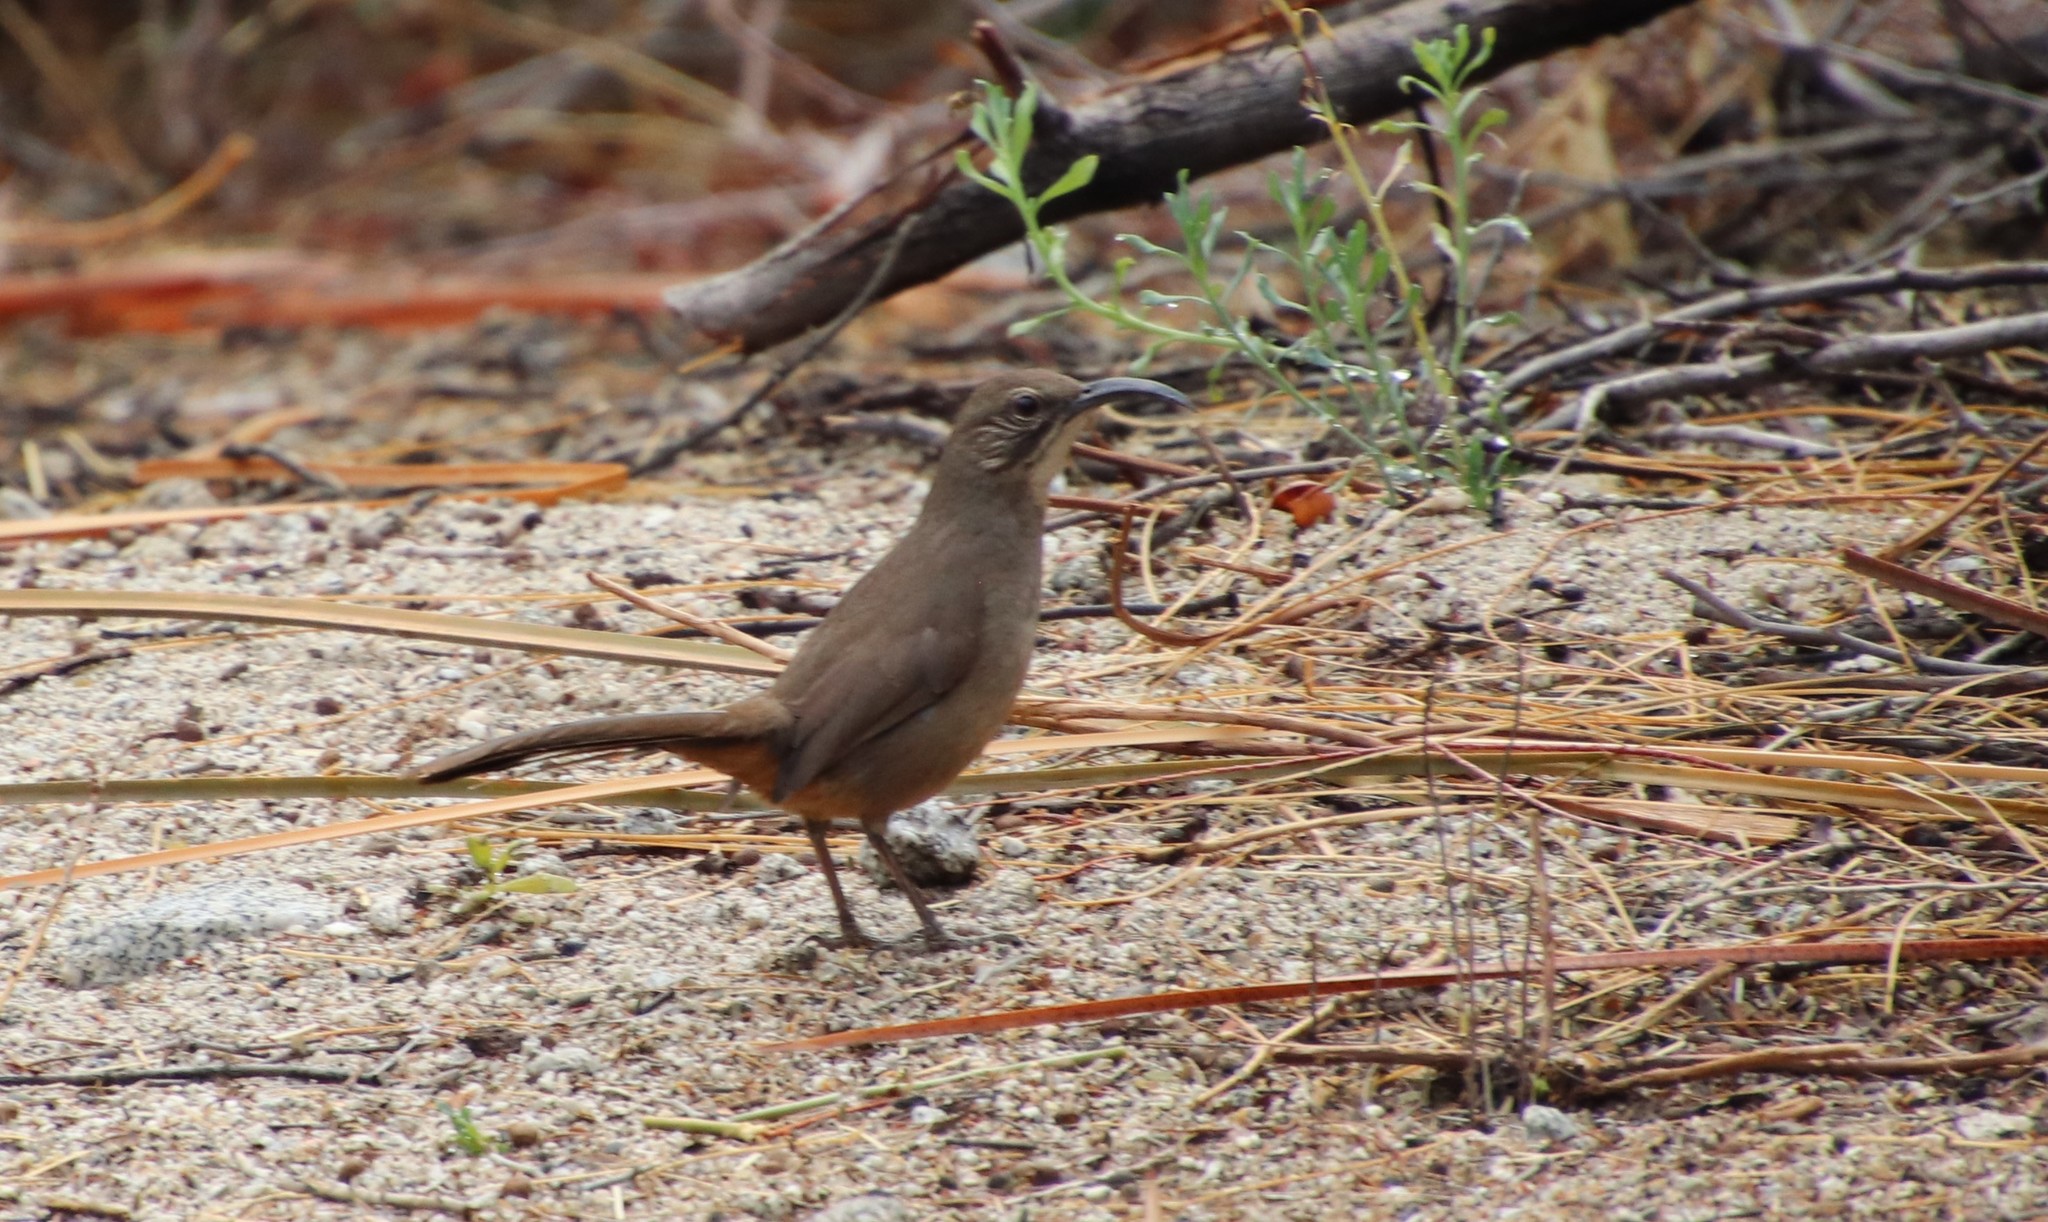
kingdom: Animalia
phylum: Chordata
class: Aves
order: Passeriformes
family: Mimidae
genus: Toxostoma
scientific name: Toxostoma redivivum
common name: California thrasher
